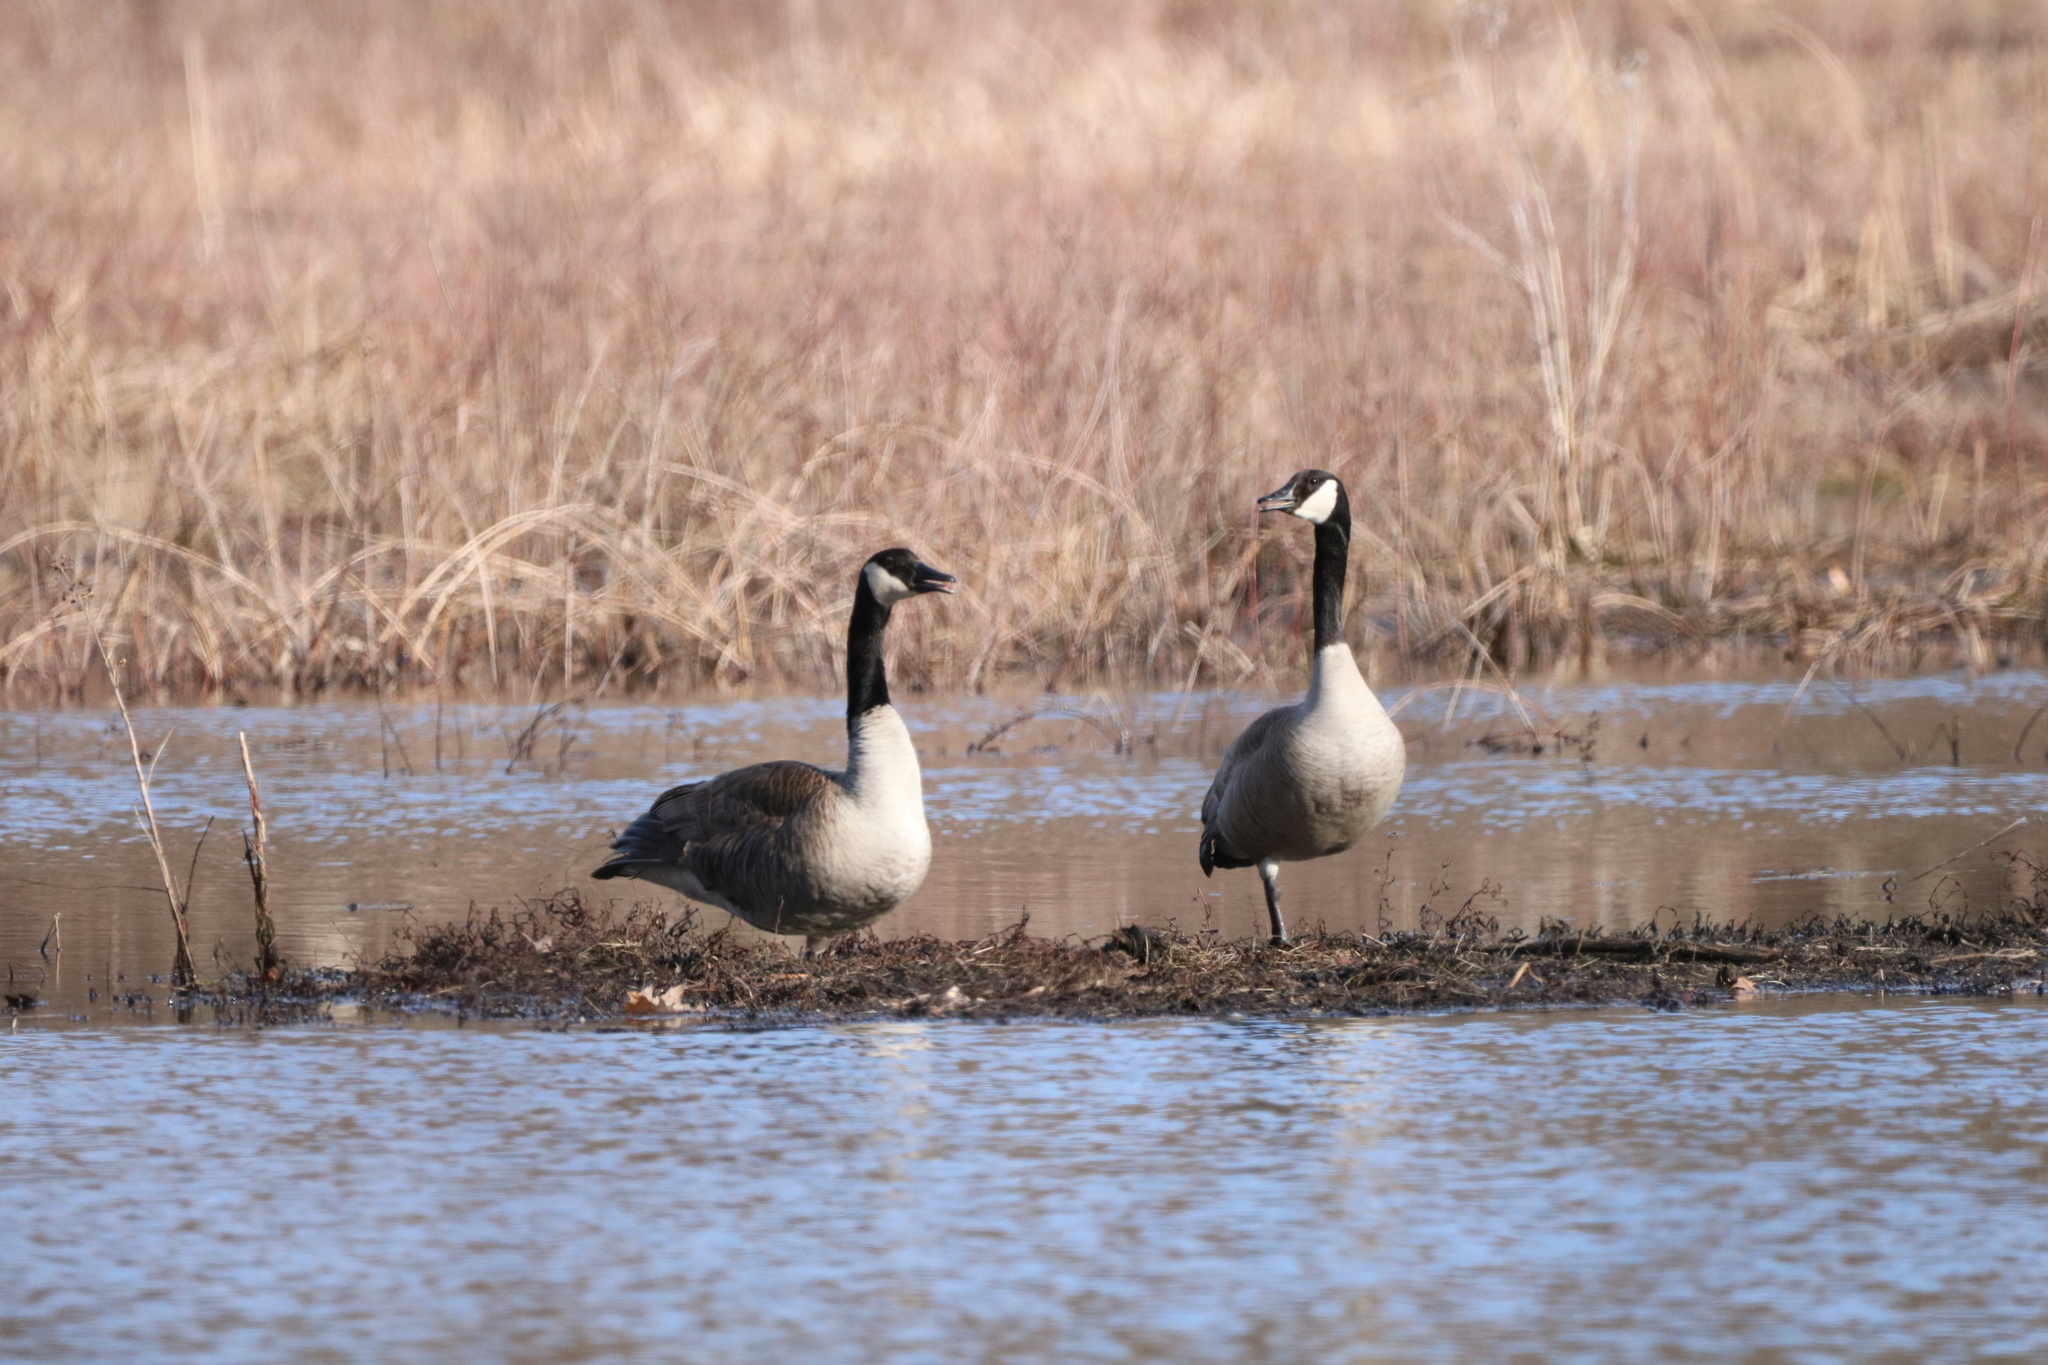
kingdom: Animalia
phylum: Chordata
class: Aves
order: Anseriformes
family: Anatidae
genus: Branta
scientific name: Branta canadensis
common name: Canada goose
